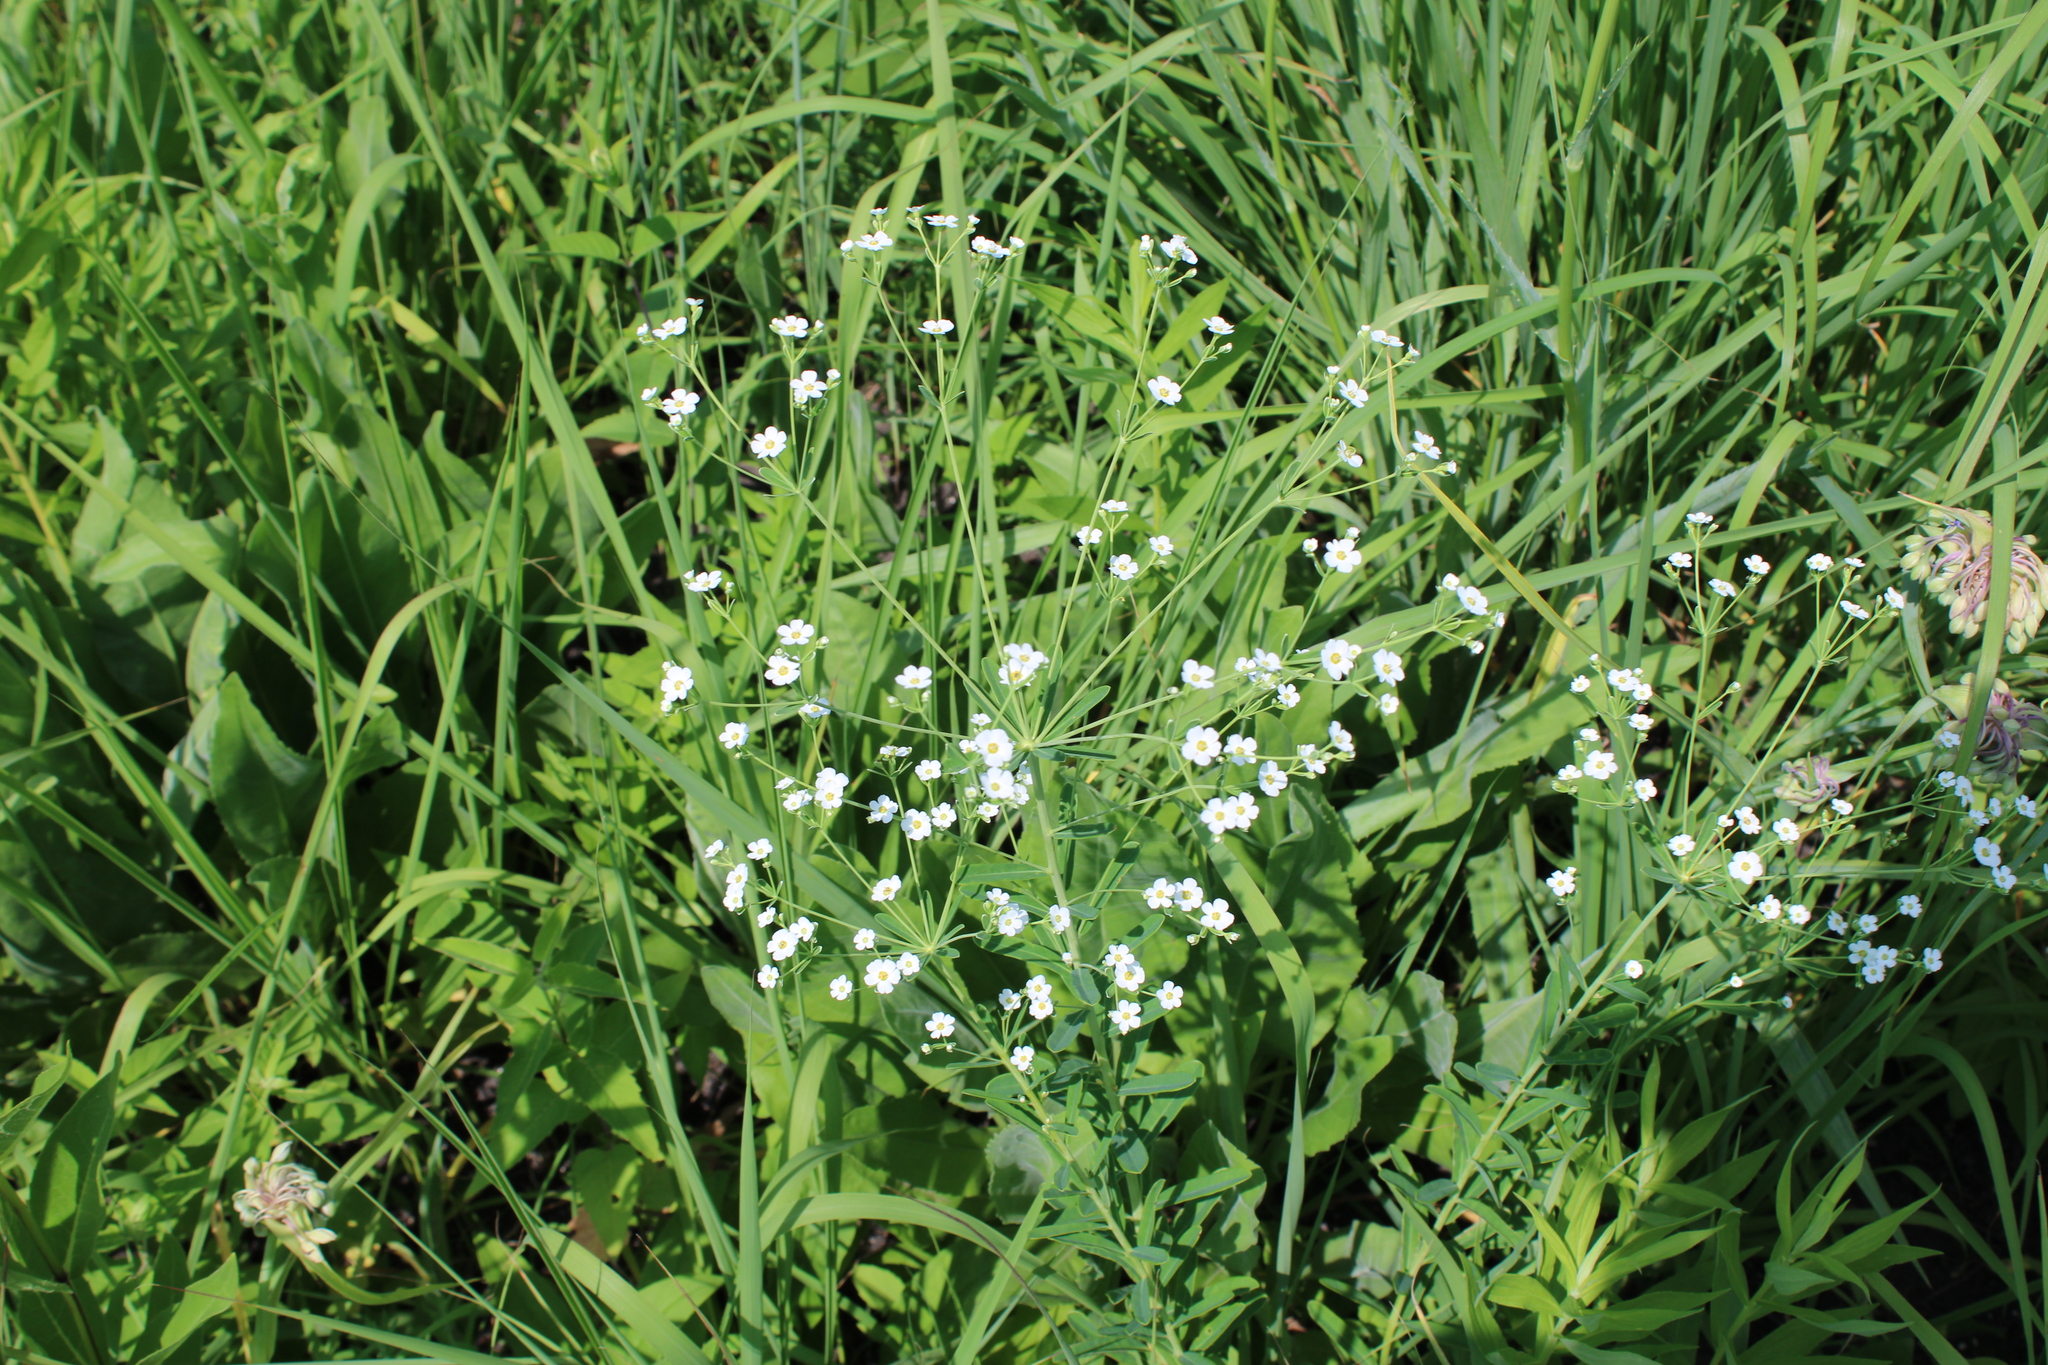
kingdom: Plantae
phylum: Tracheophyta
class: Magnoliopsida
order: Malpighiales
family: Euphorbiaceae
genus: Euphorbia
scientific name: Euphorbia corollata
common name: Flowering spurge
